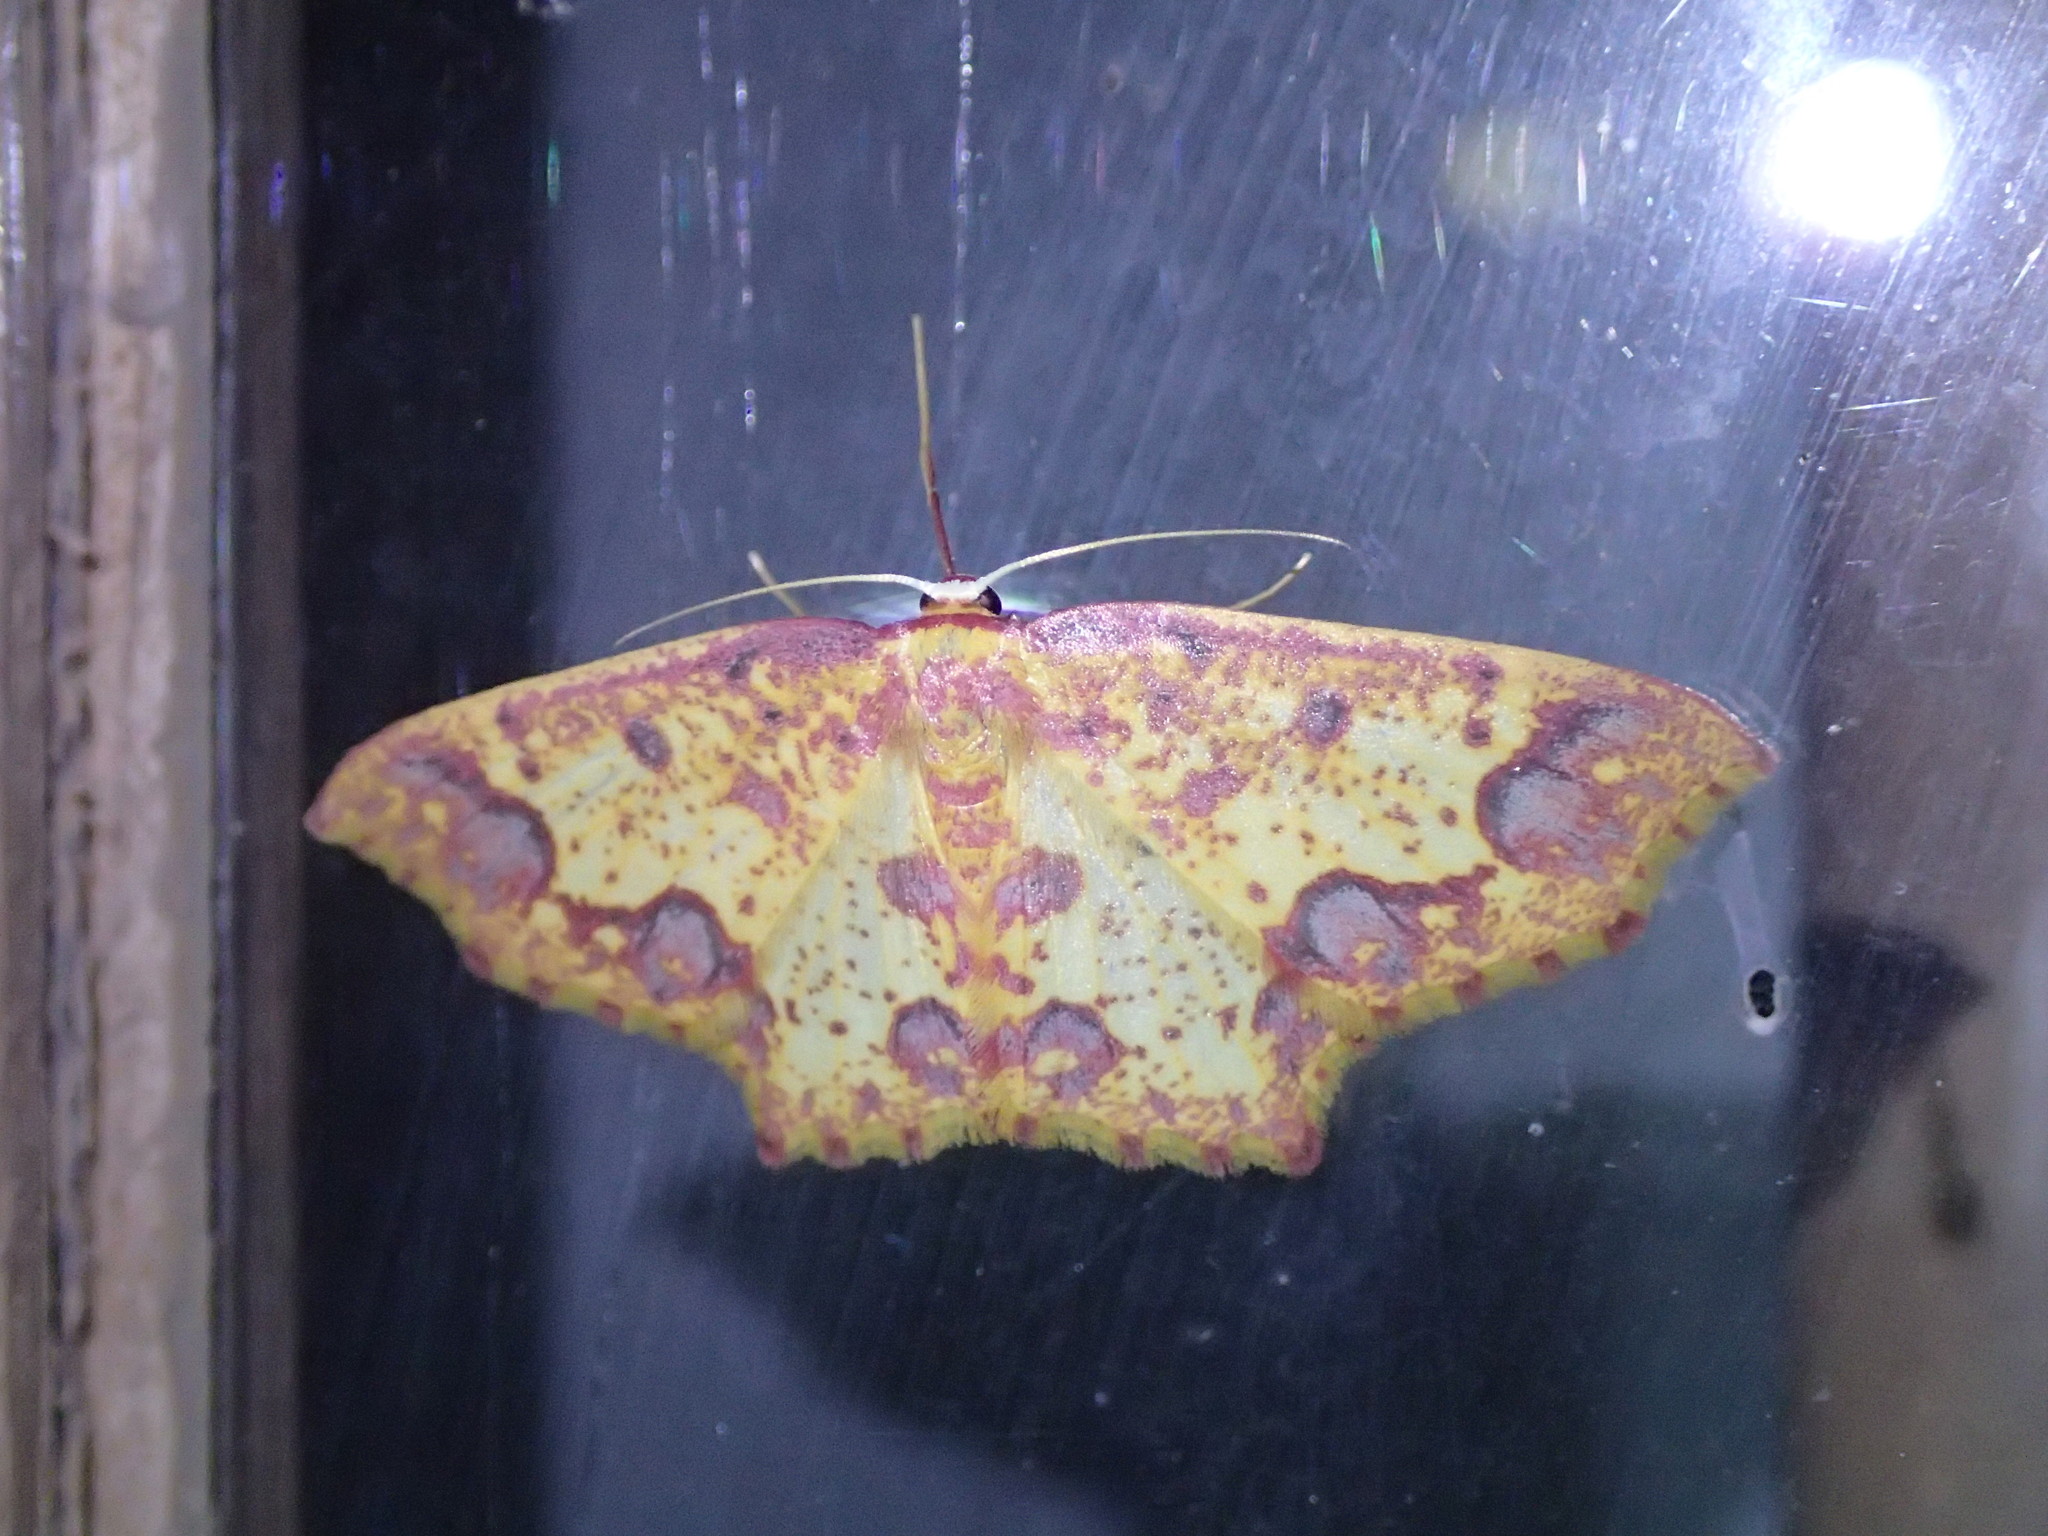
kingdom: Animalia
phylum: Arthropoda
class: Insecta
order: Lepidoptera
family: Geometridae
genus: Synegiodes
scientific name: Synegiodes sanguinaria
